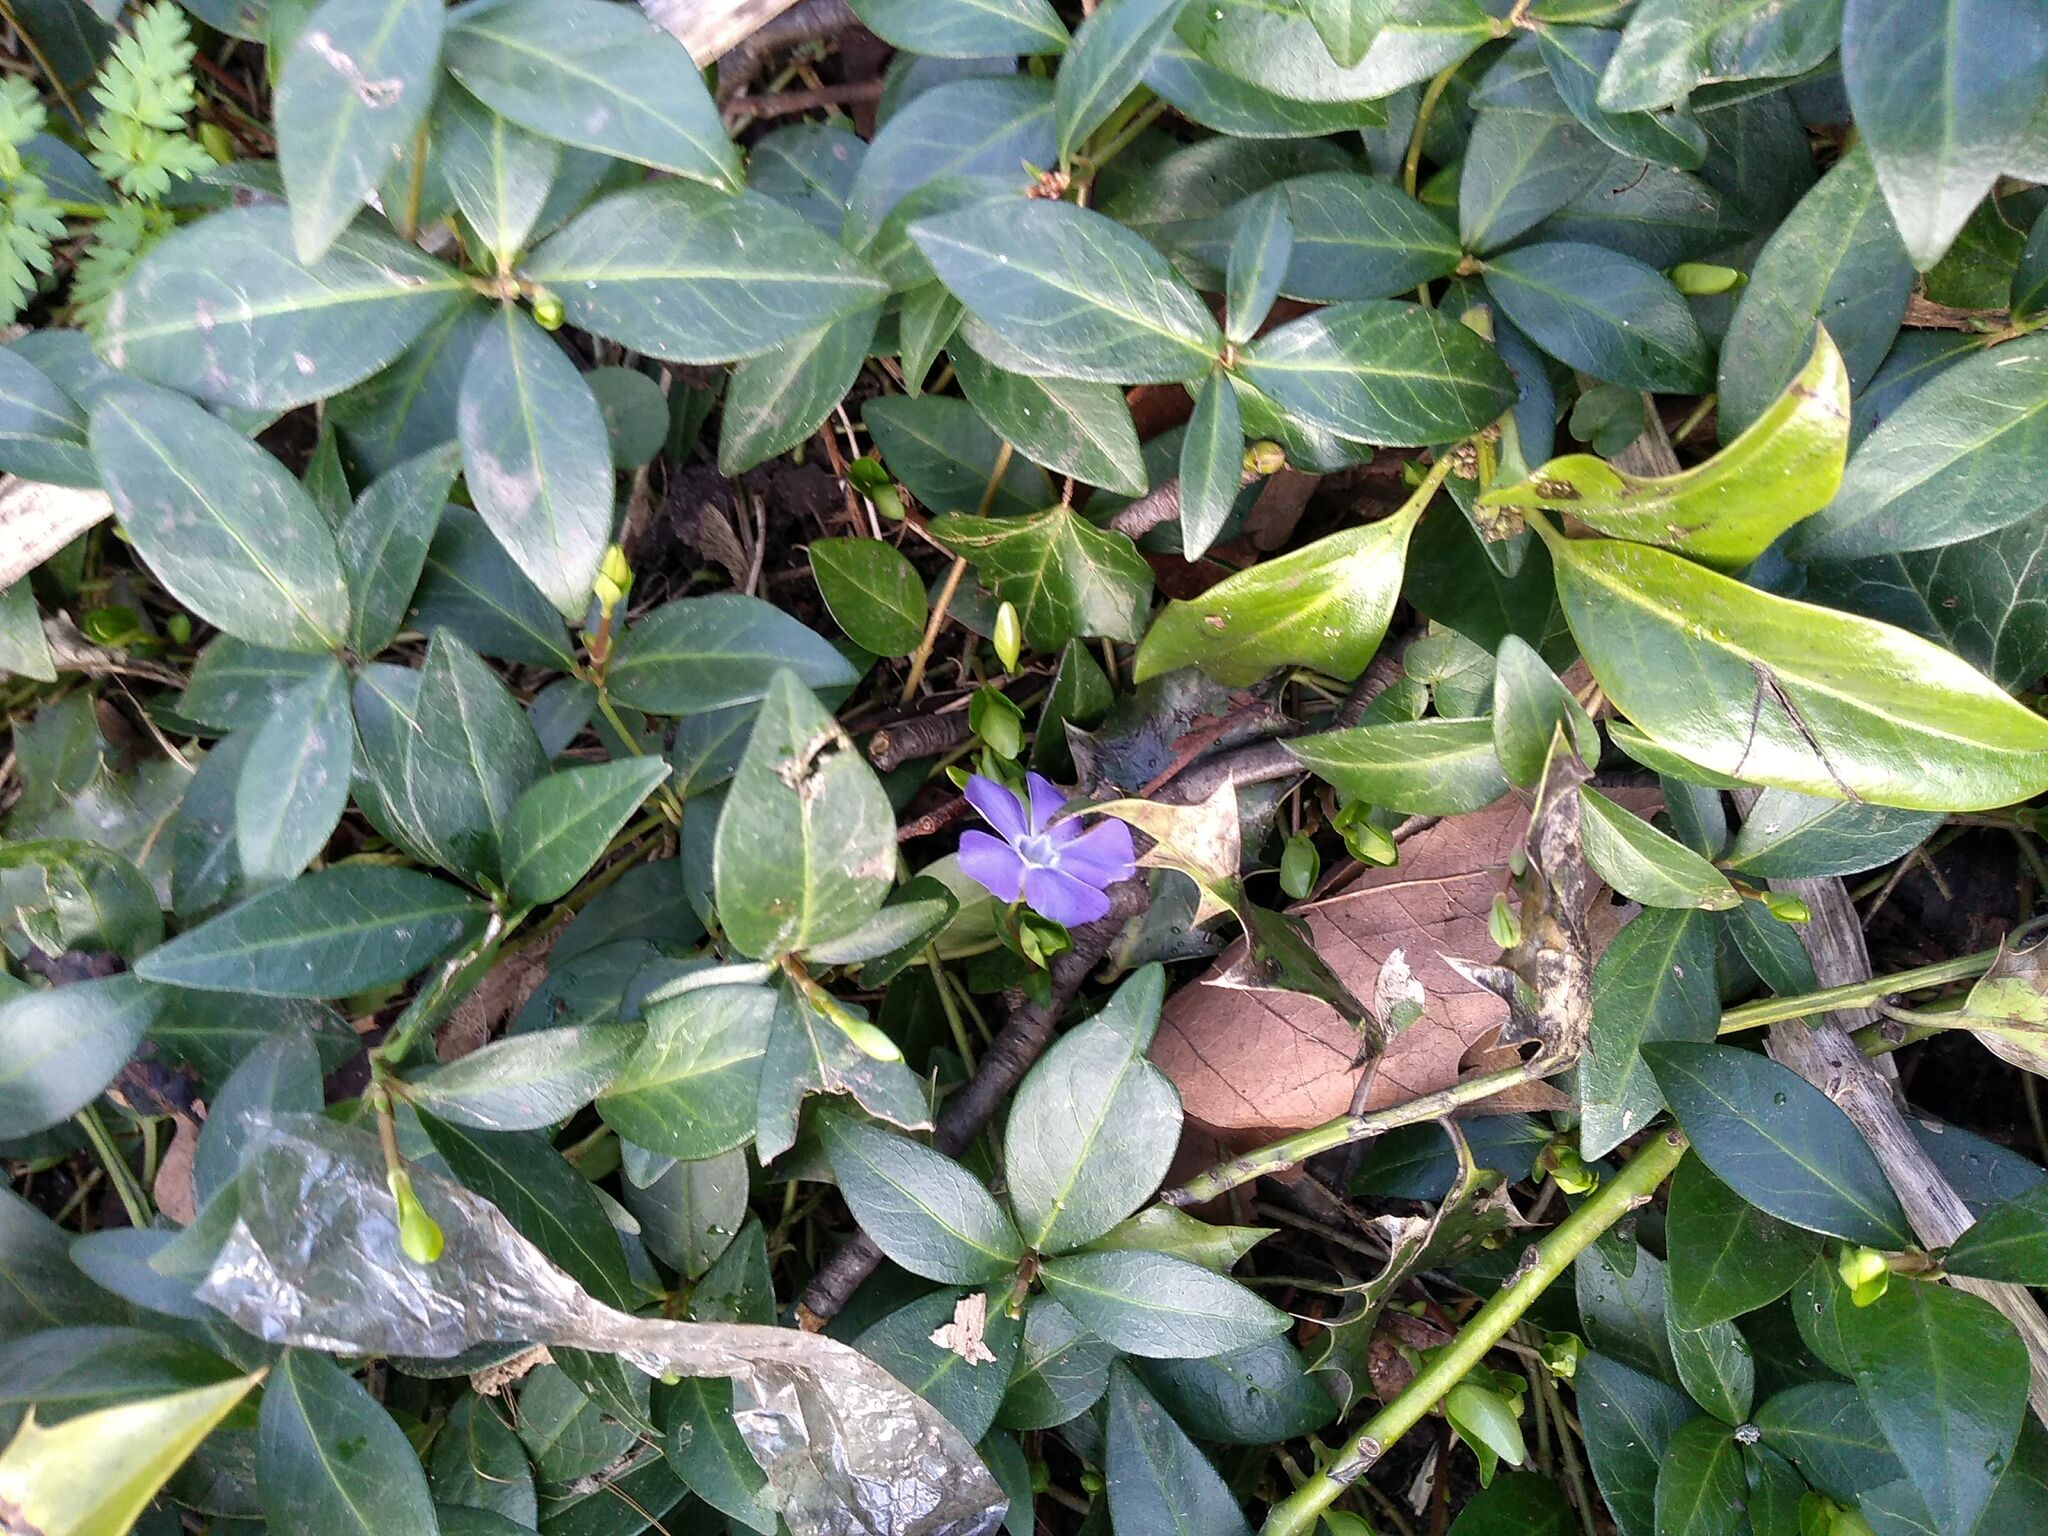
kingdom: Plantae
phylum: Tracheophyta
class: Magnoliopsida
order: Gentianales
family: Apocynaceae
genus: Vinca
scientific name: Vinca minor
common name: Lesser periwinkle
